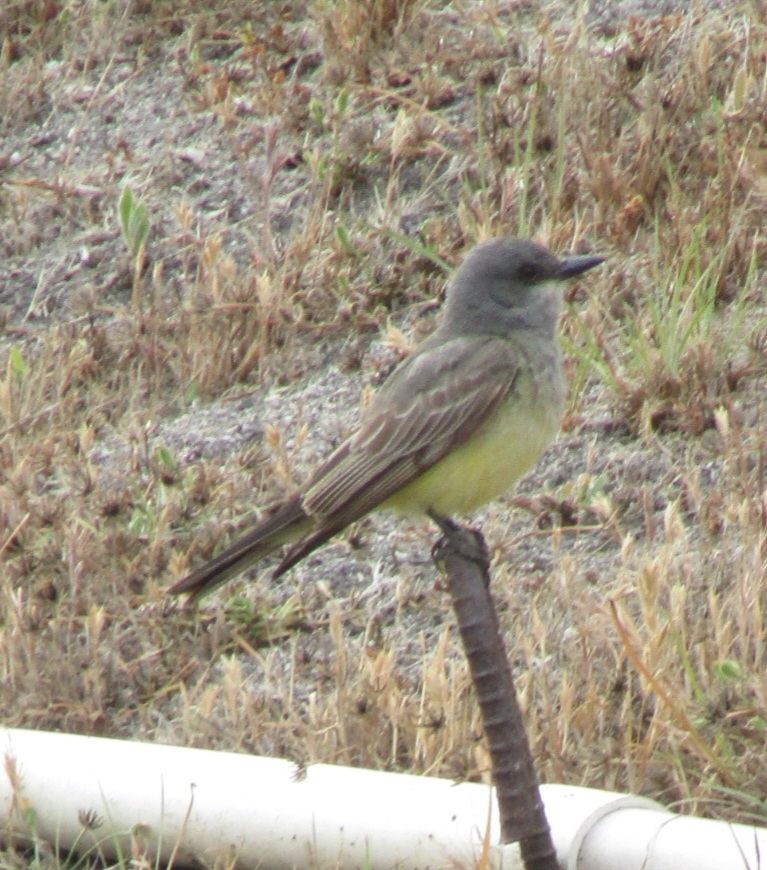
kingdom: Animalia
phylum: Chordata
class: Aves
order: Passeriformes
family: Tyrannidae
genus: Tyrannus
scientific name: Tyrannus vociferans
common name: Cassin's kingbird
